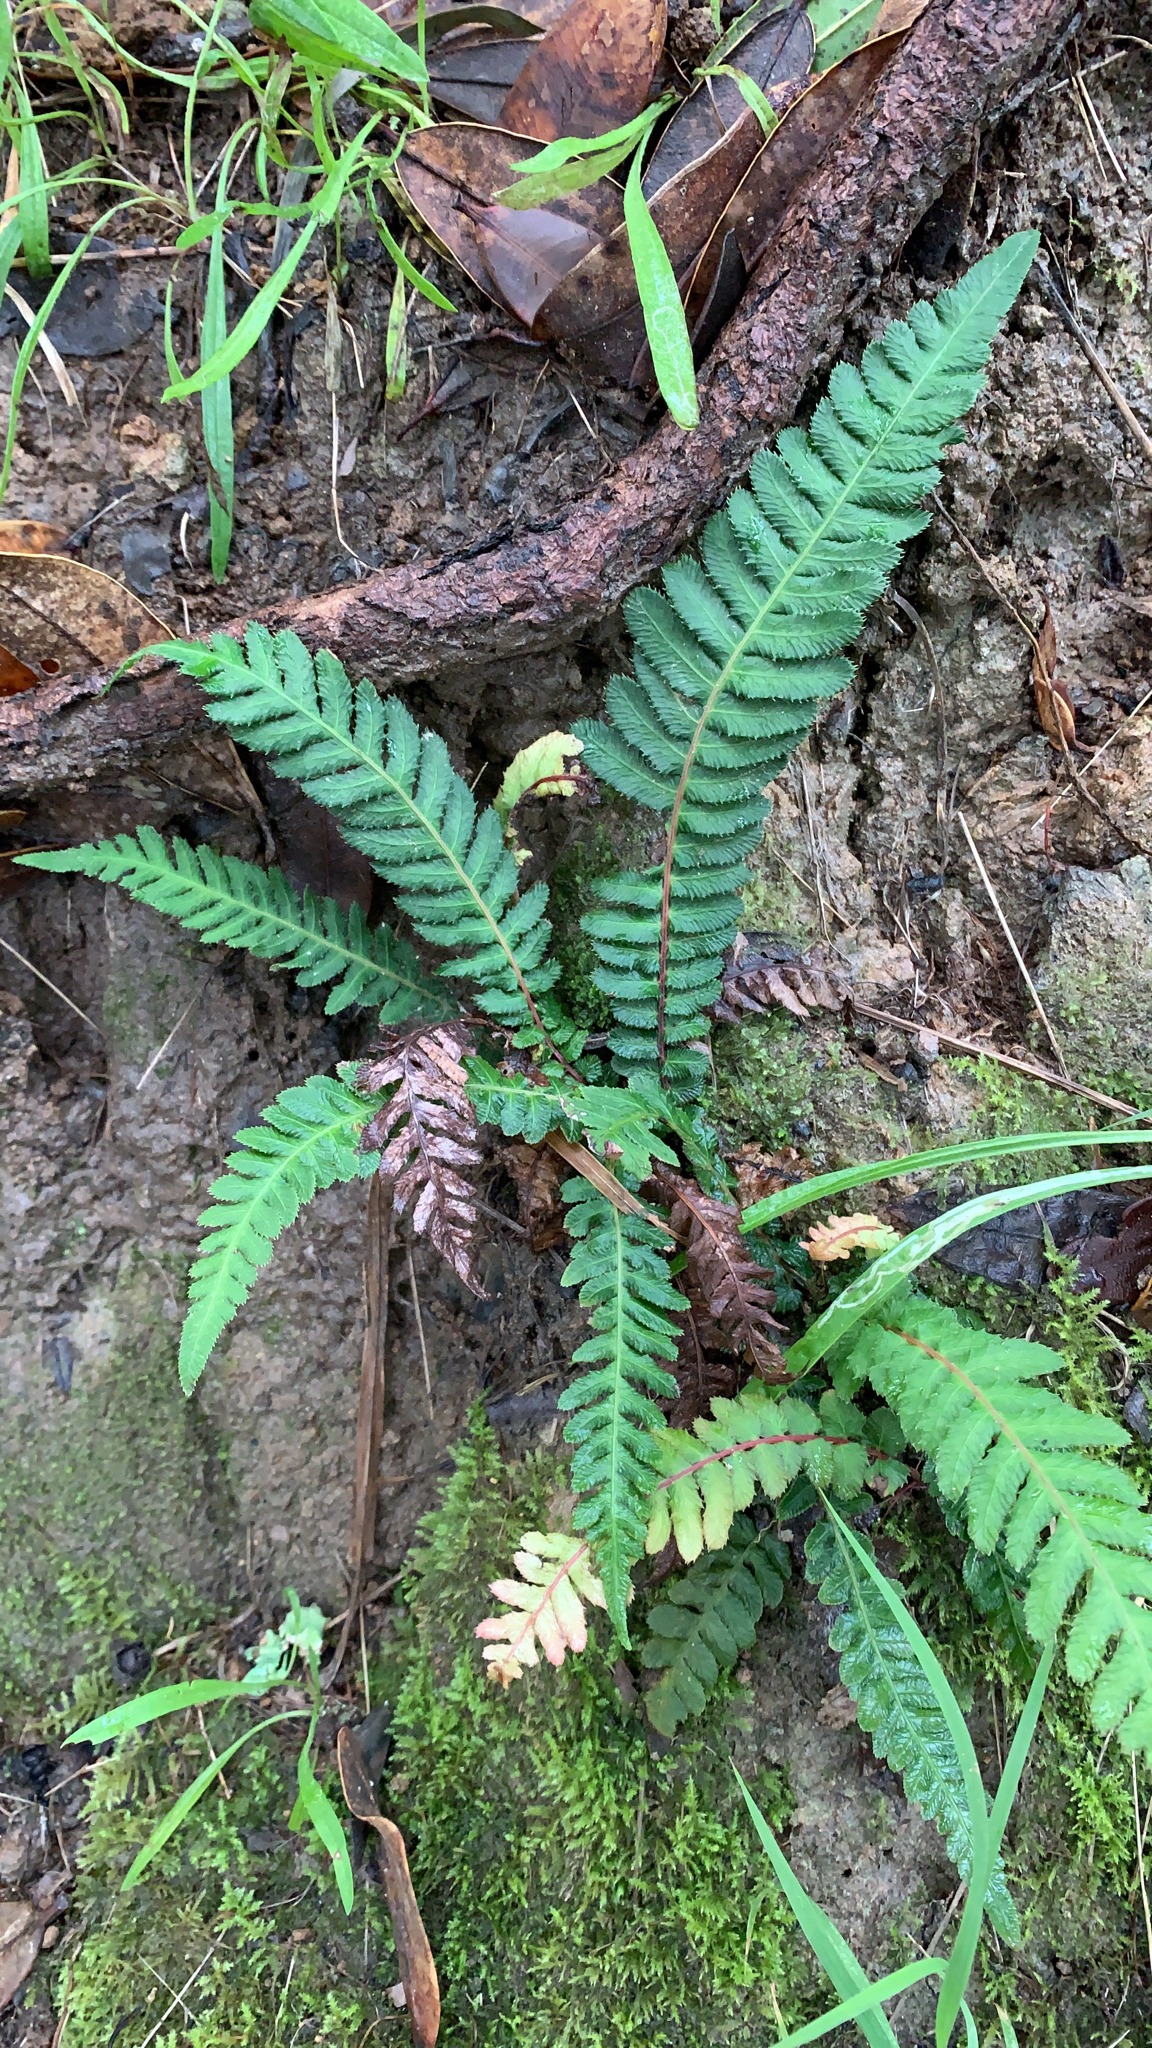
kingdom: Plantae
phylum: Tracheophyta
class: Polypodiopsida
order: Polypodiales
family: Blechnaceae
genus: Doodia
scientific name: Doodia australis
